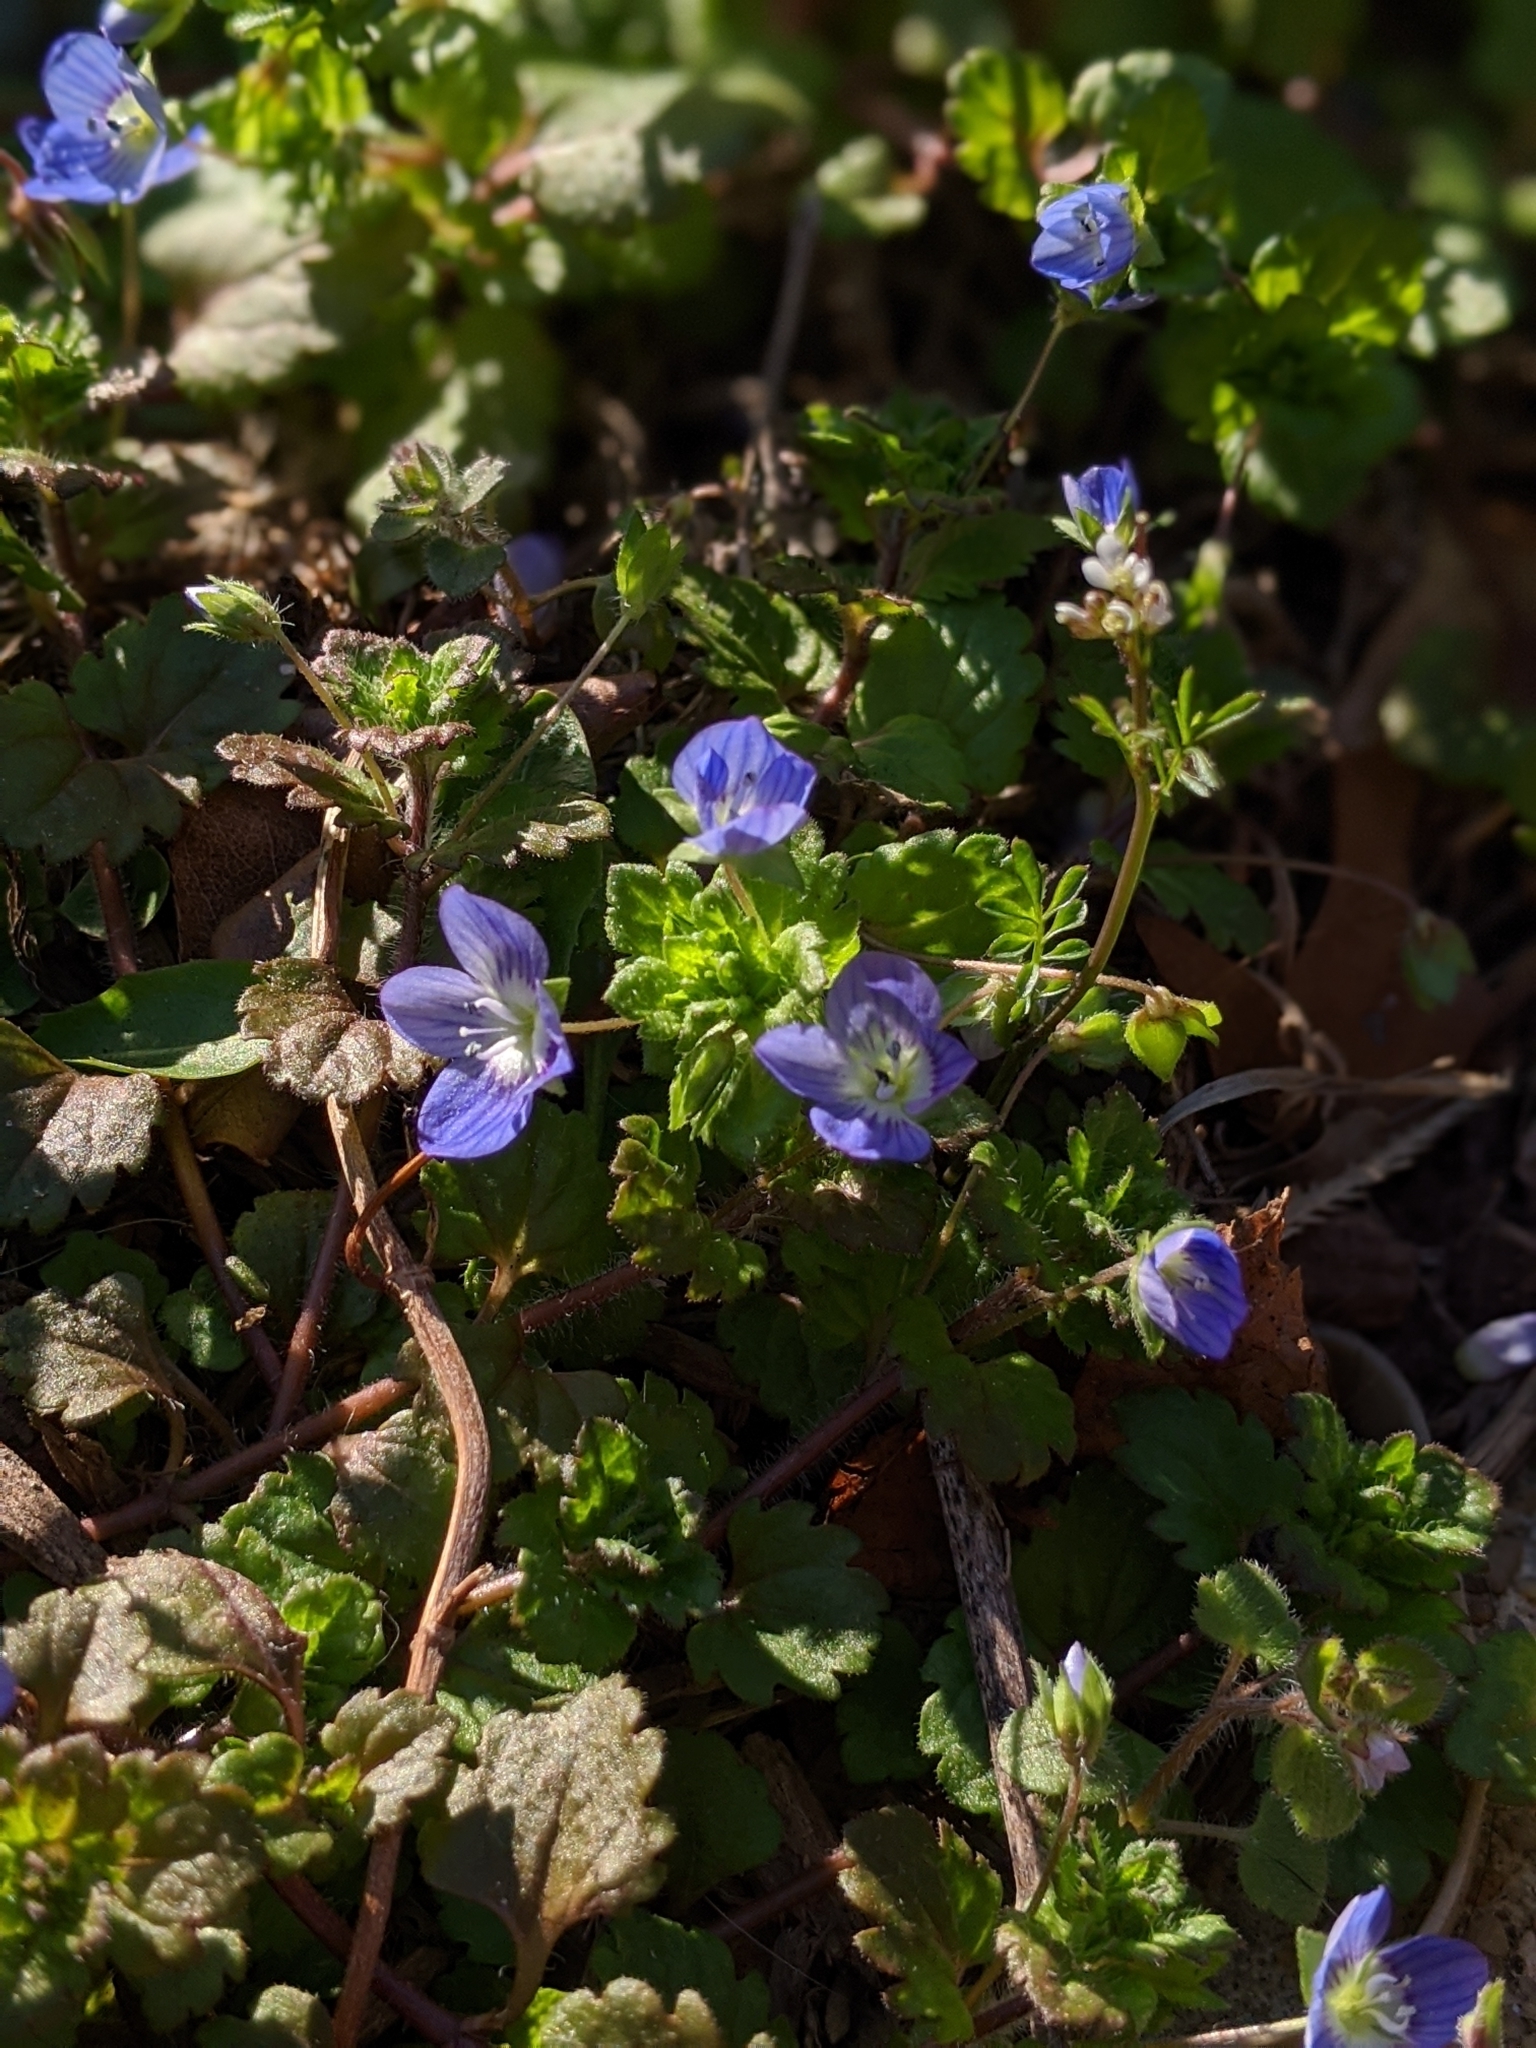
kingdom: Plantae
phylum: Tracheophyta
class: Magnoliopsida
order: Lamiales
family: Plantaginaceae
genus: Veronica
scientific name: Veronica persica
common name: Common field-speedwell
